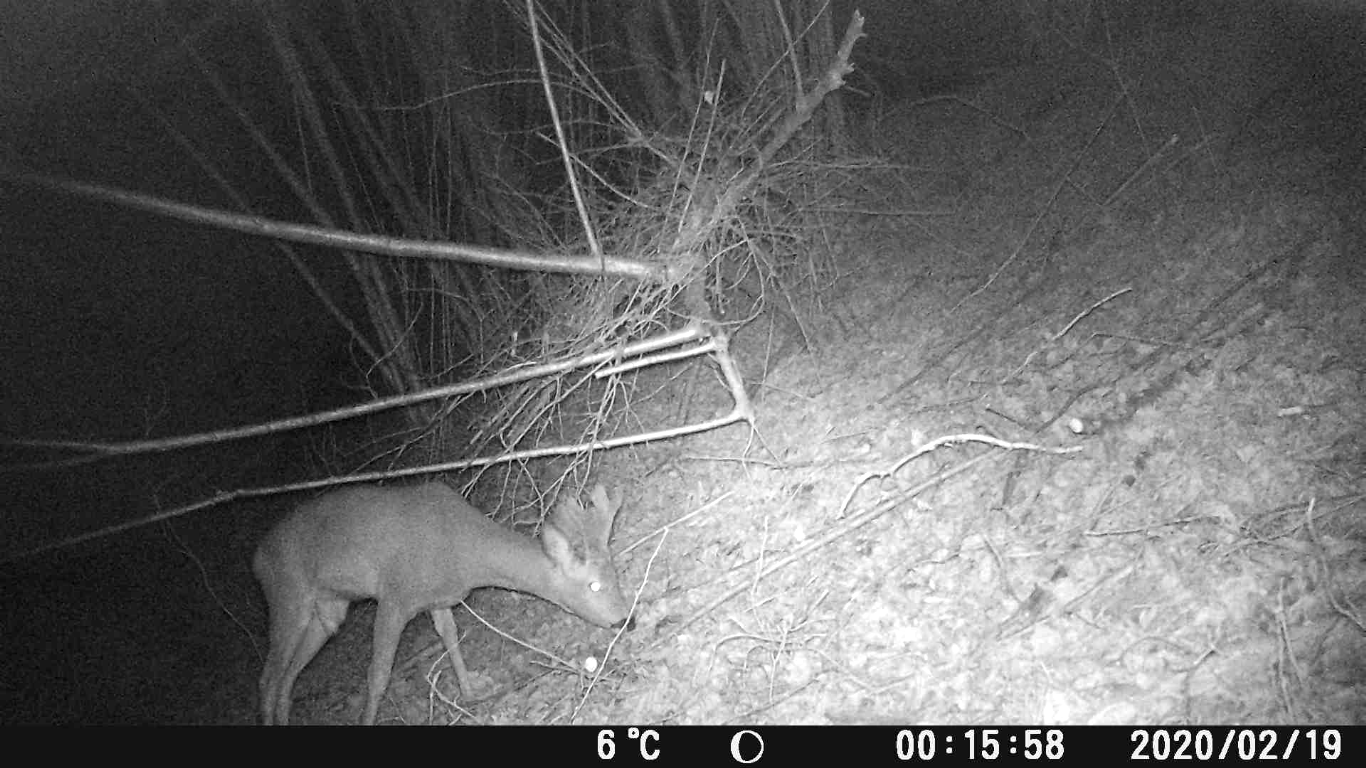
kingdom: Animalia
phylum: Chordata
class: Mammalia
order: Artiodactyla
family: Cervidae
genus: Capreolus
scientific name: Capreolus capreolus
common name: Western roe deer
